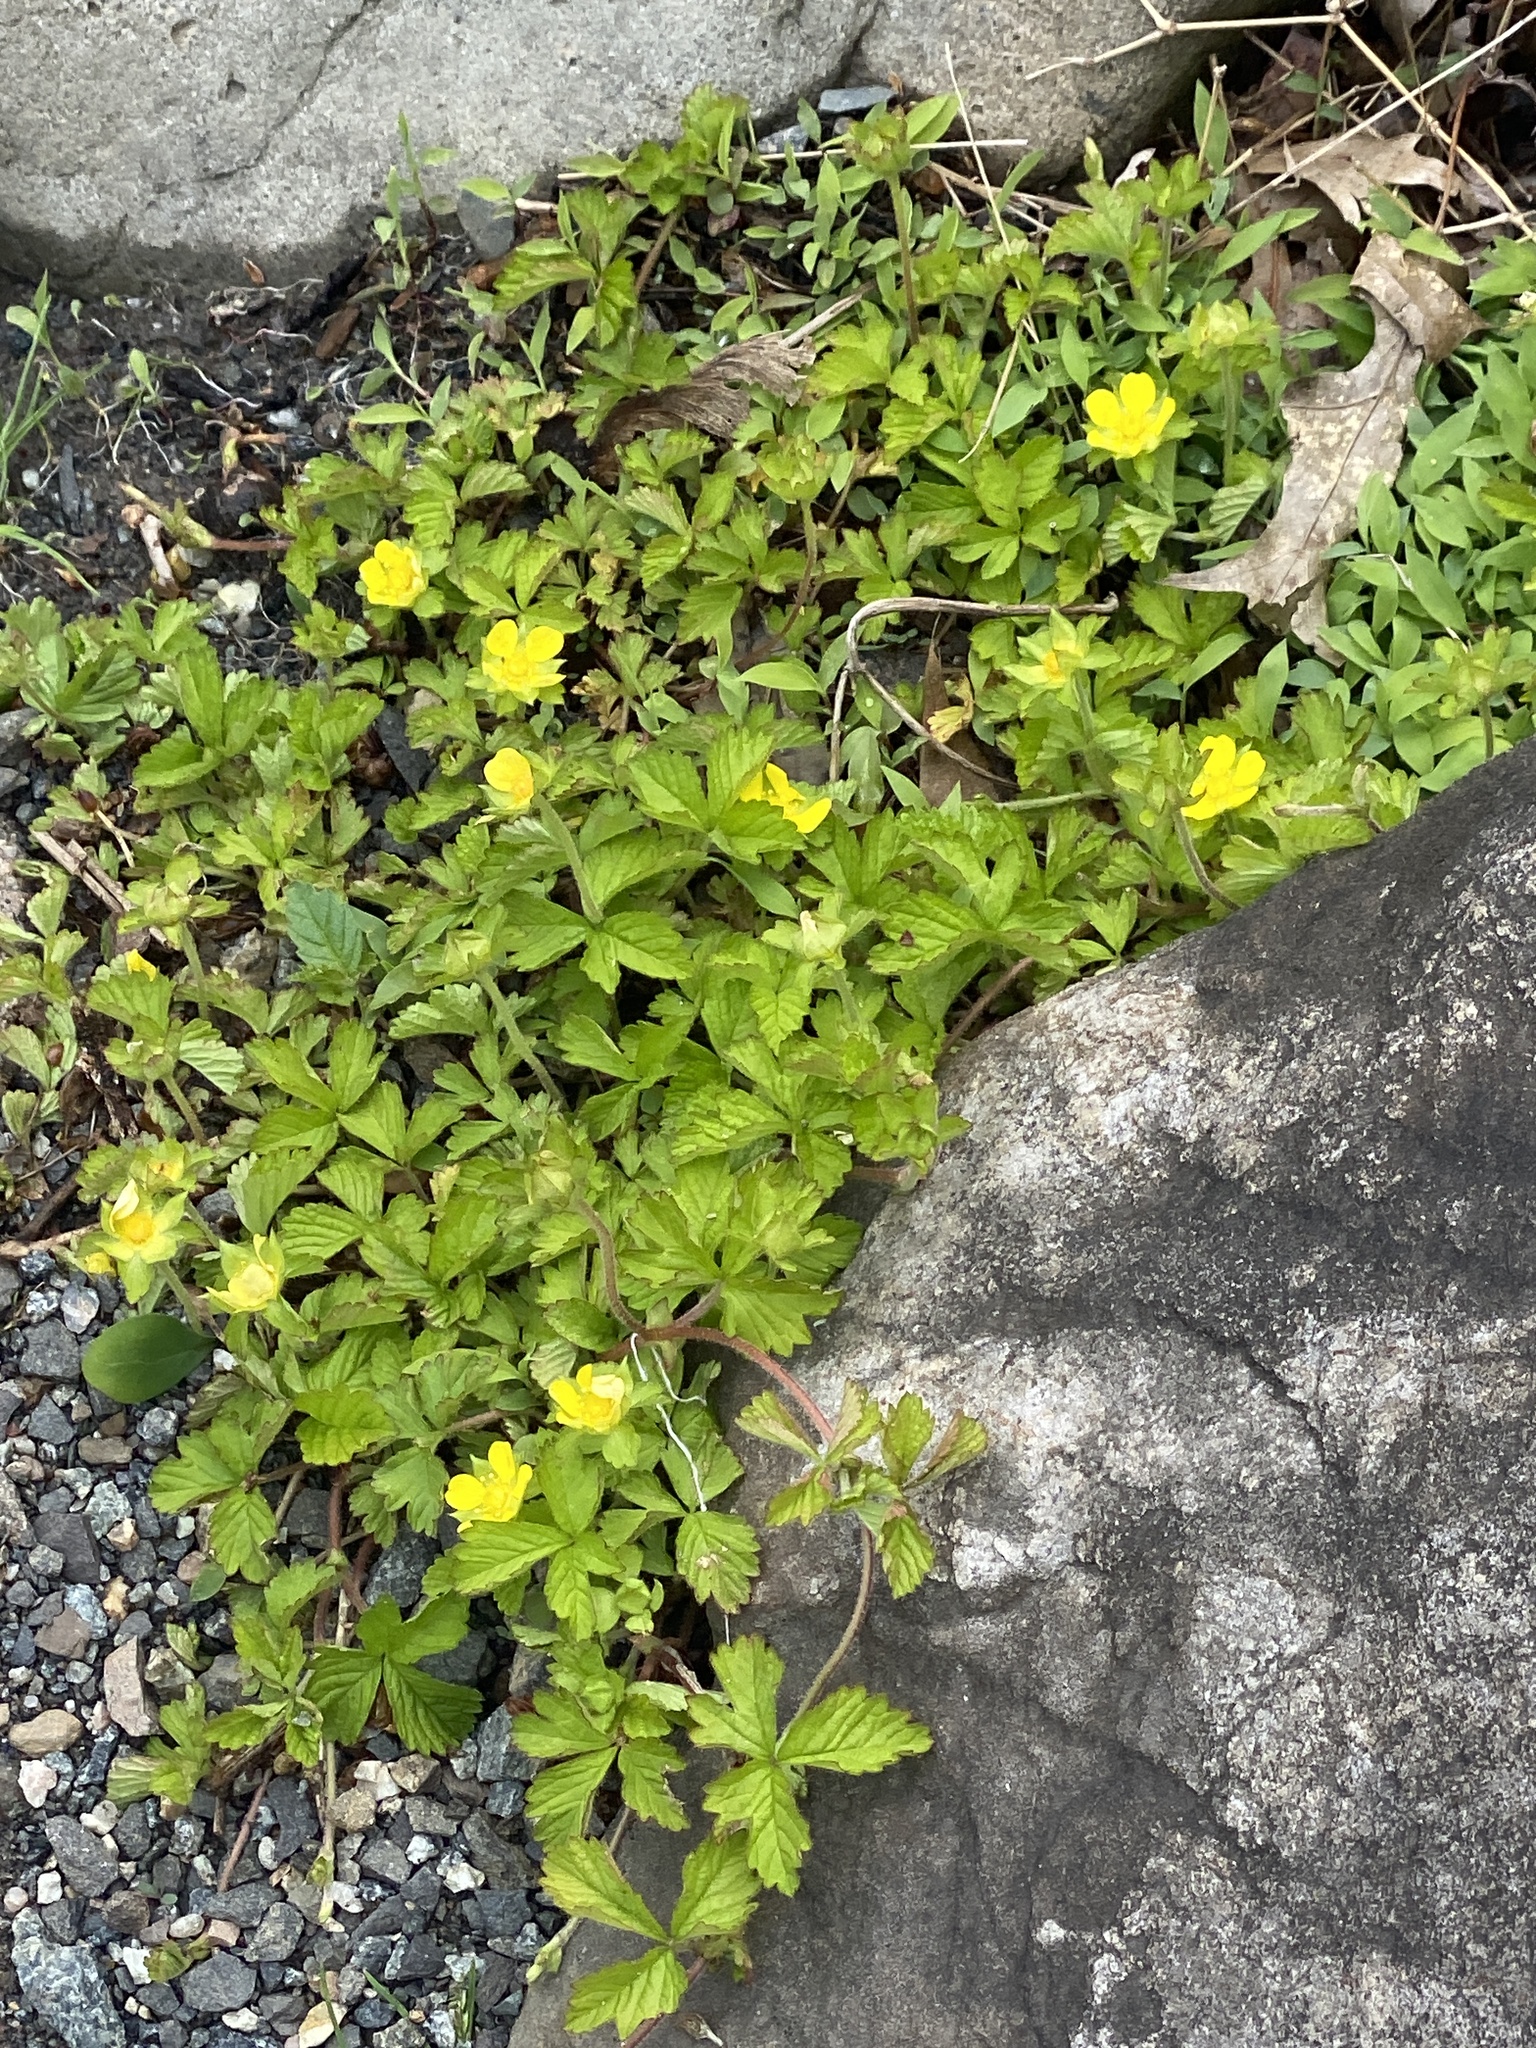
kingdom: Plantae
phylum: Tracheophyta
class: Magnoliopsida
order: Rosales
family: Rosaceae
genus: Potentilla
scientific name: Potentilla indica
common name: Yellow-flowered strawberry
